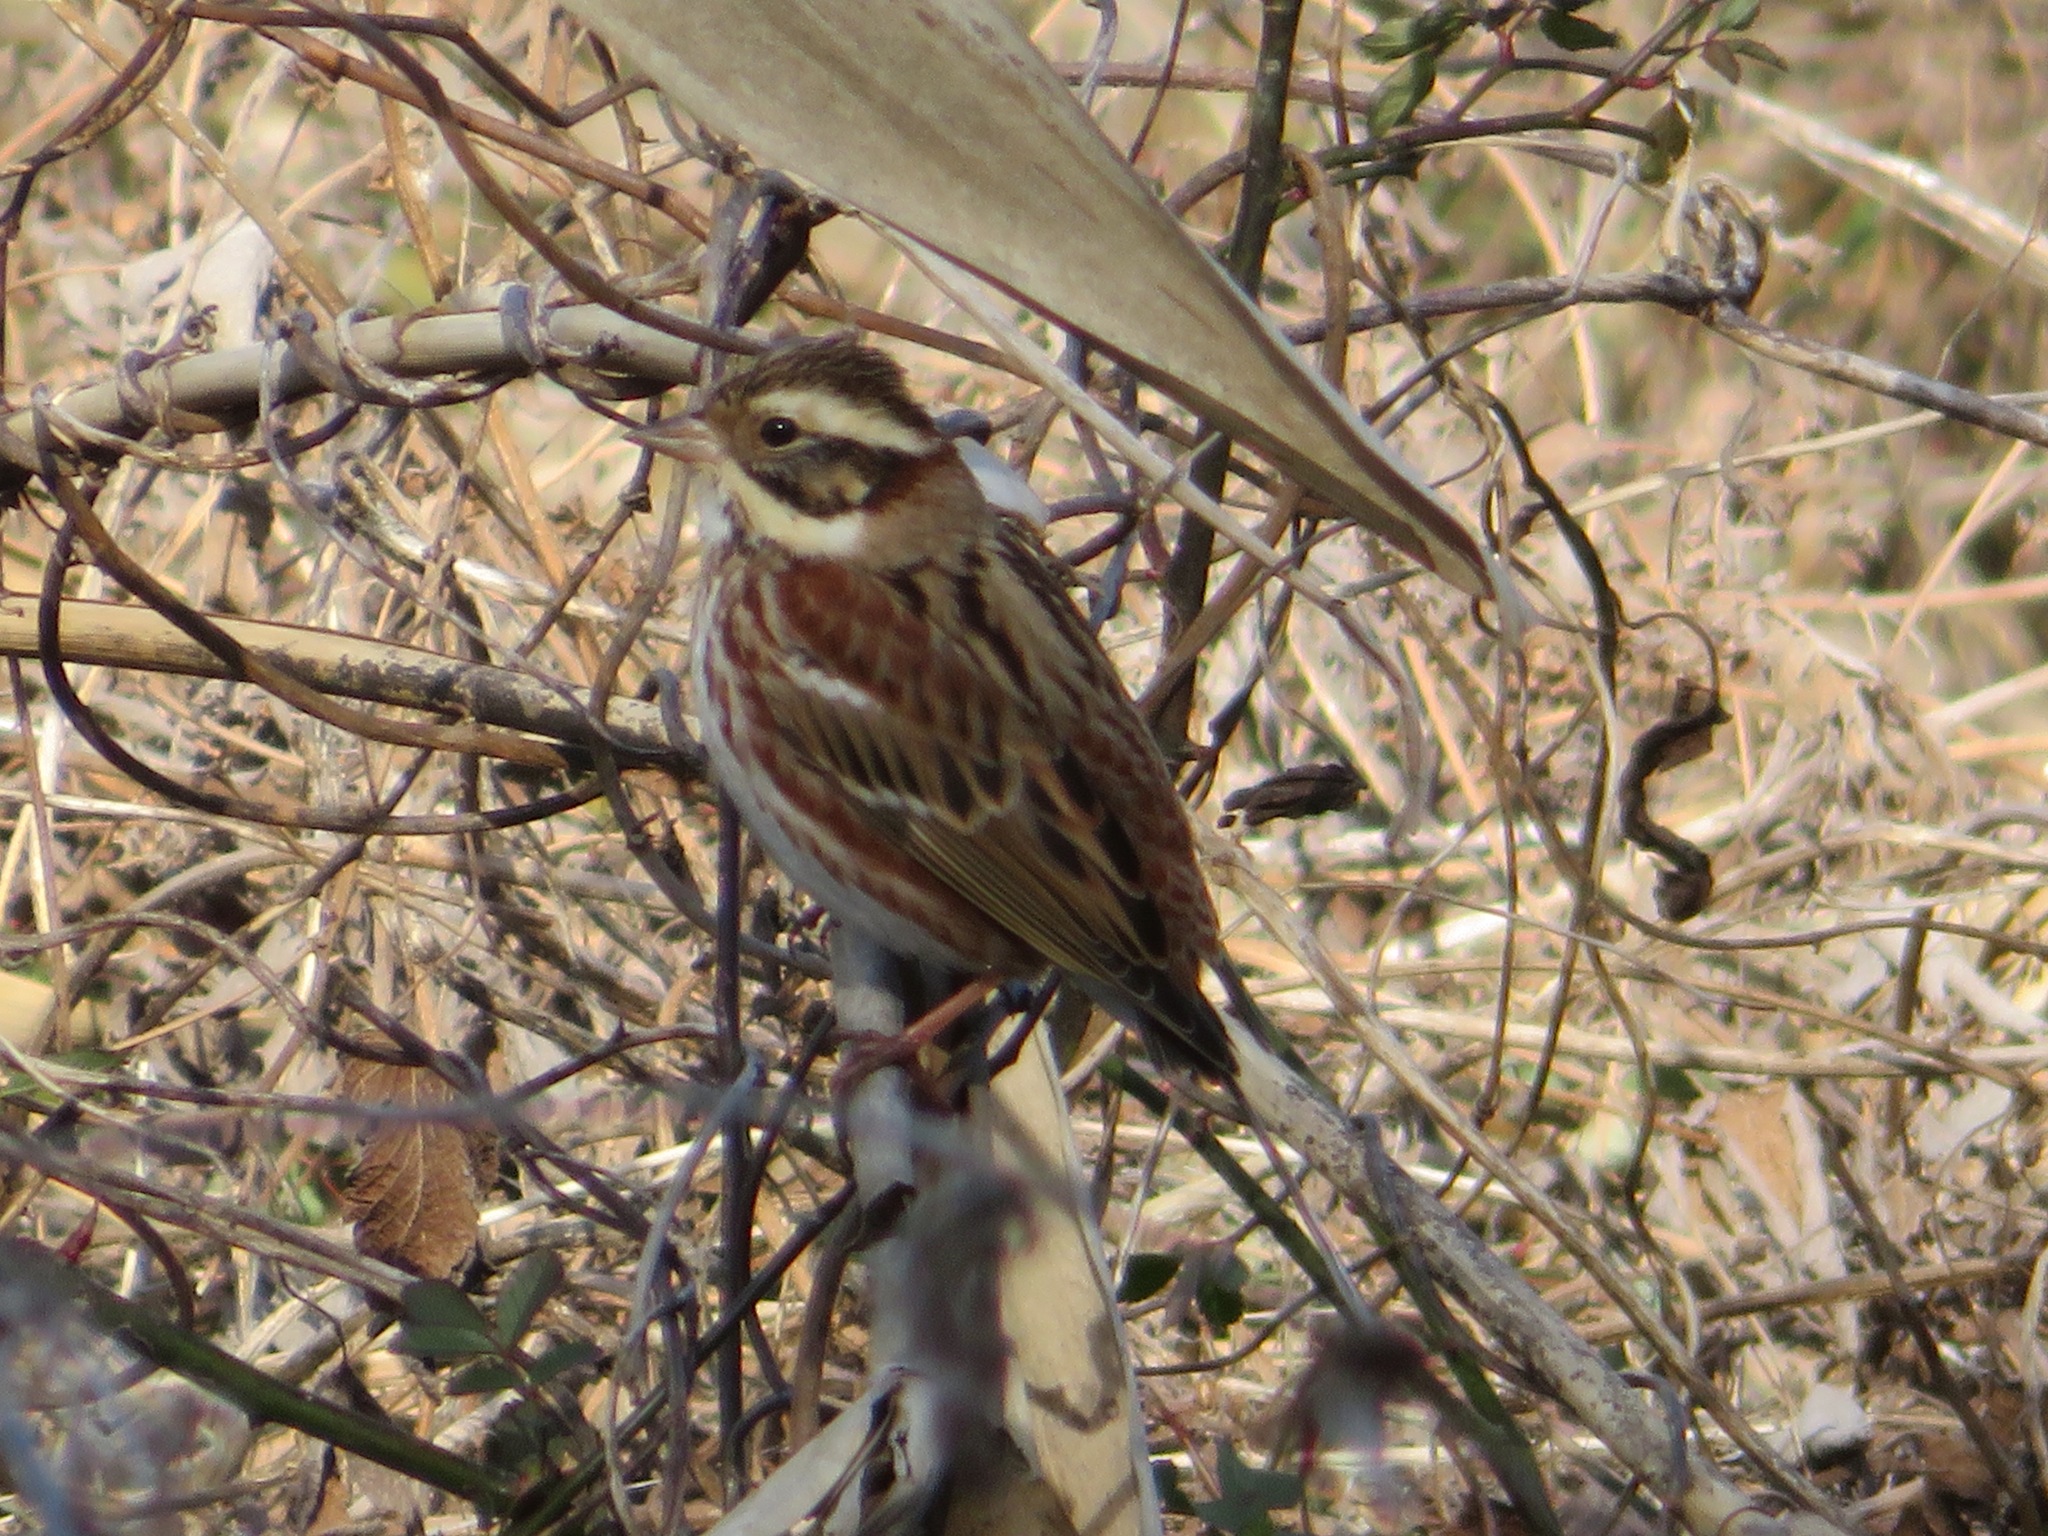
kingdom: Animalia
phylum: Chordata
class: Aves
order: Passeriformes
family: Emberizidae
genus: Emberiza
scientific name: Emberiza rustica
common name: Rustic bunting
